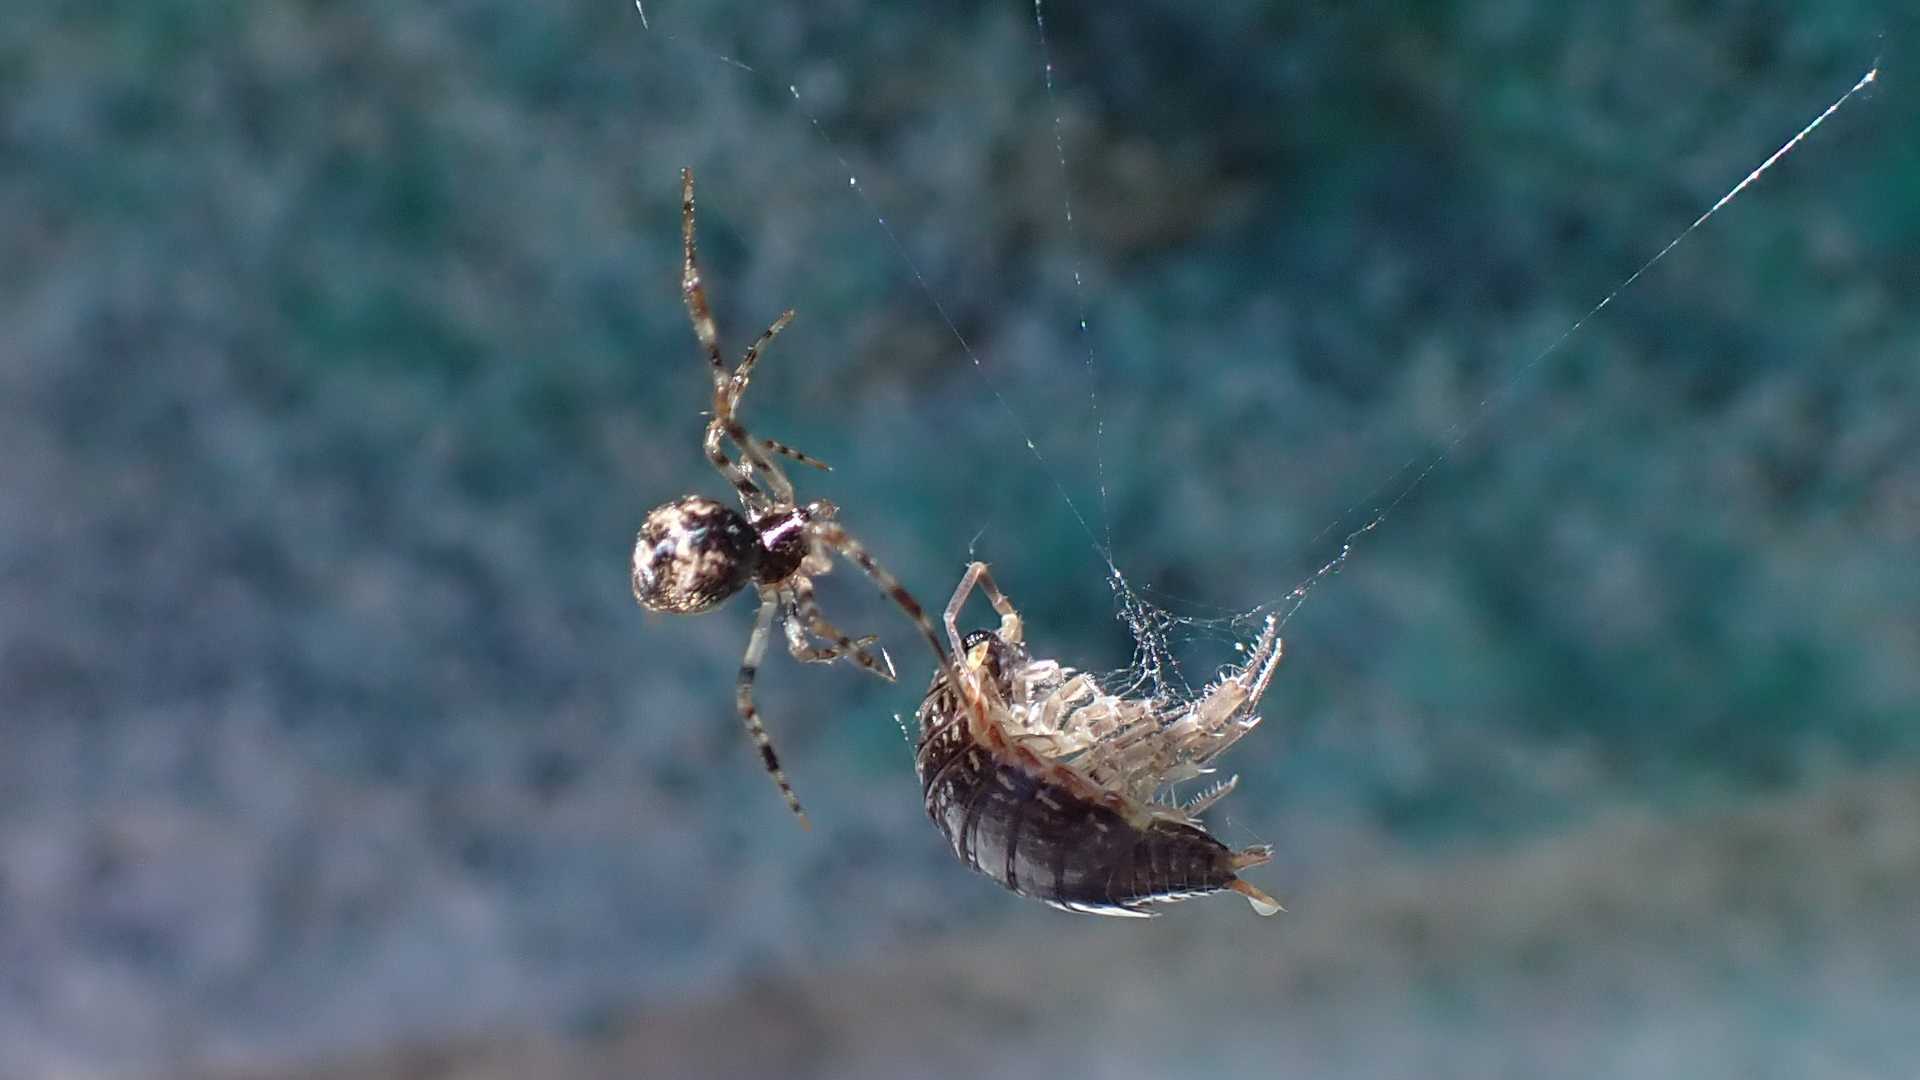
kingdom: Animalia
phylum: Arthropoda
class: Malacostraca
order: Isopoda
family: Philosciidae
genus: Philoscia
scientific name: Philoscia muscorum
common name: Common striped woodlouse
